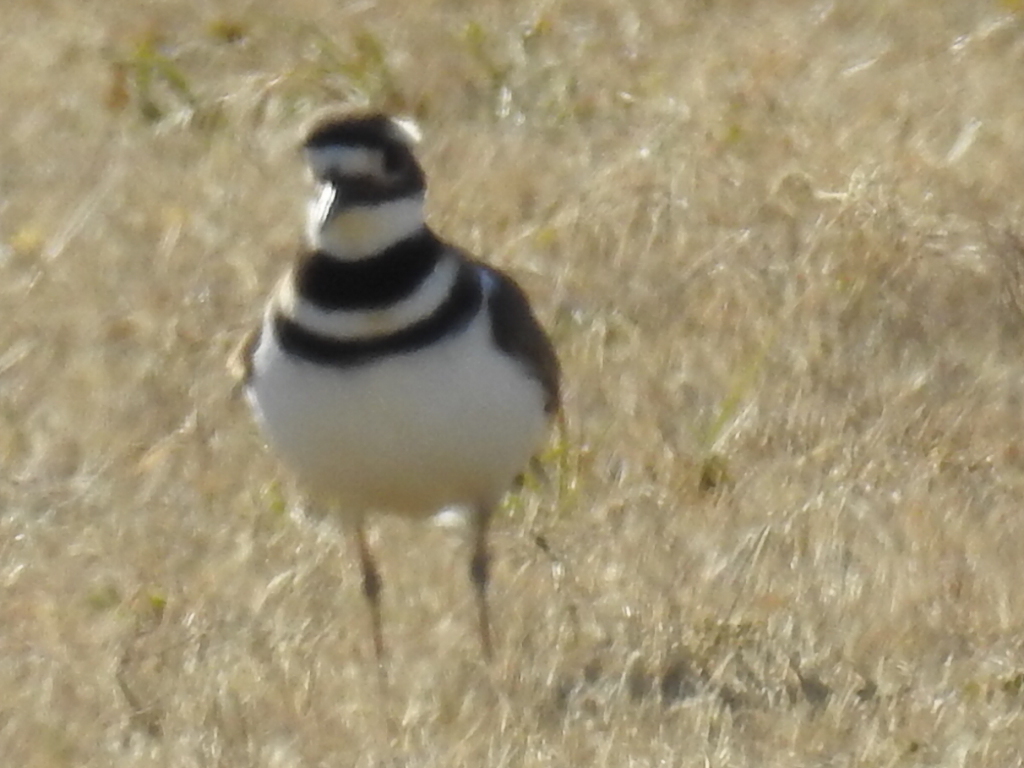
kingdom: Animalia
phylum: Chordata
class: Aves
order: Charadriiformes
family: Charadriidae
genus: Charadrius
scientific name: Charadrius vociferus
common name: Killdeer
